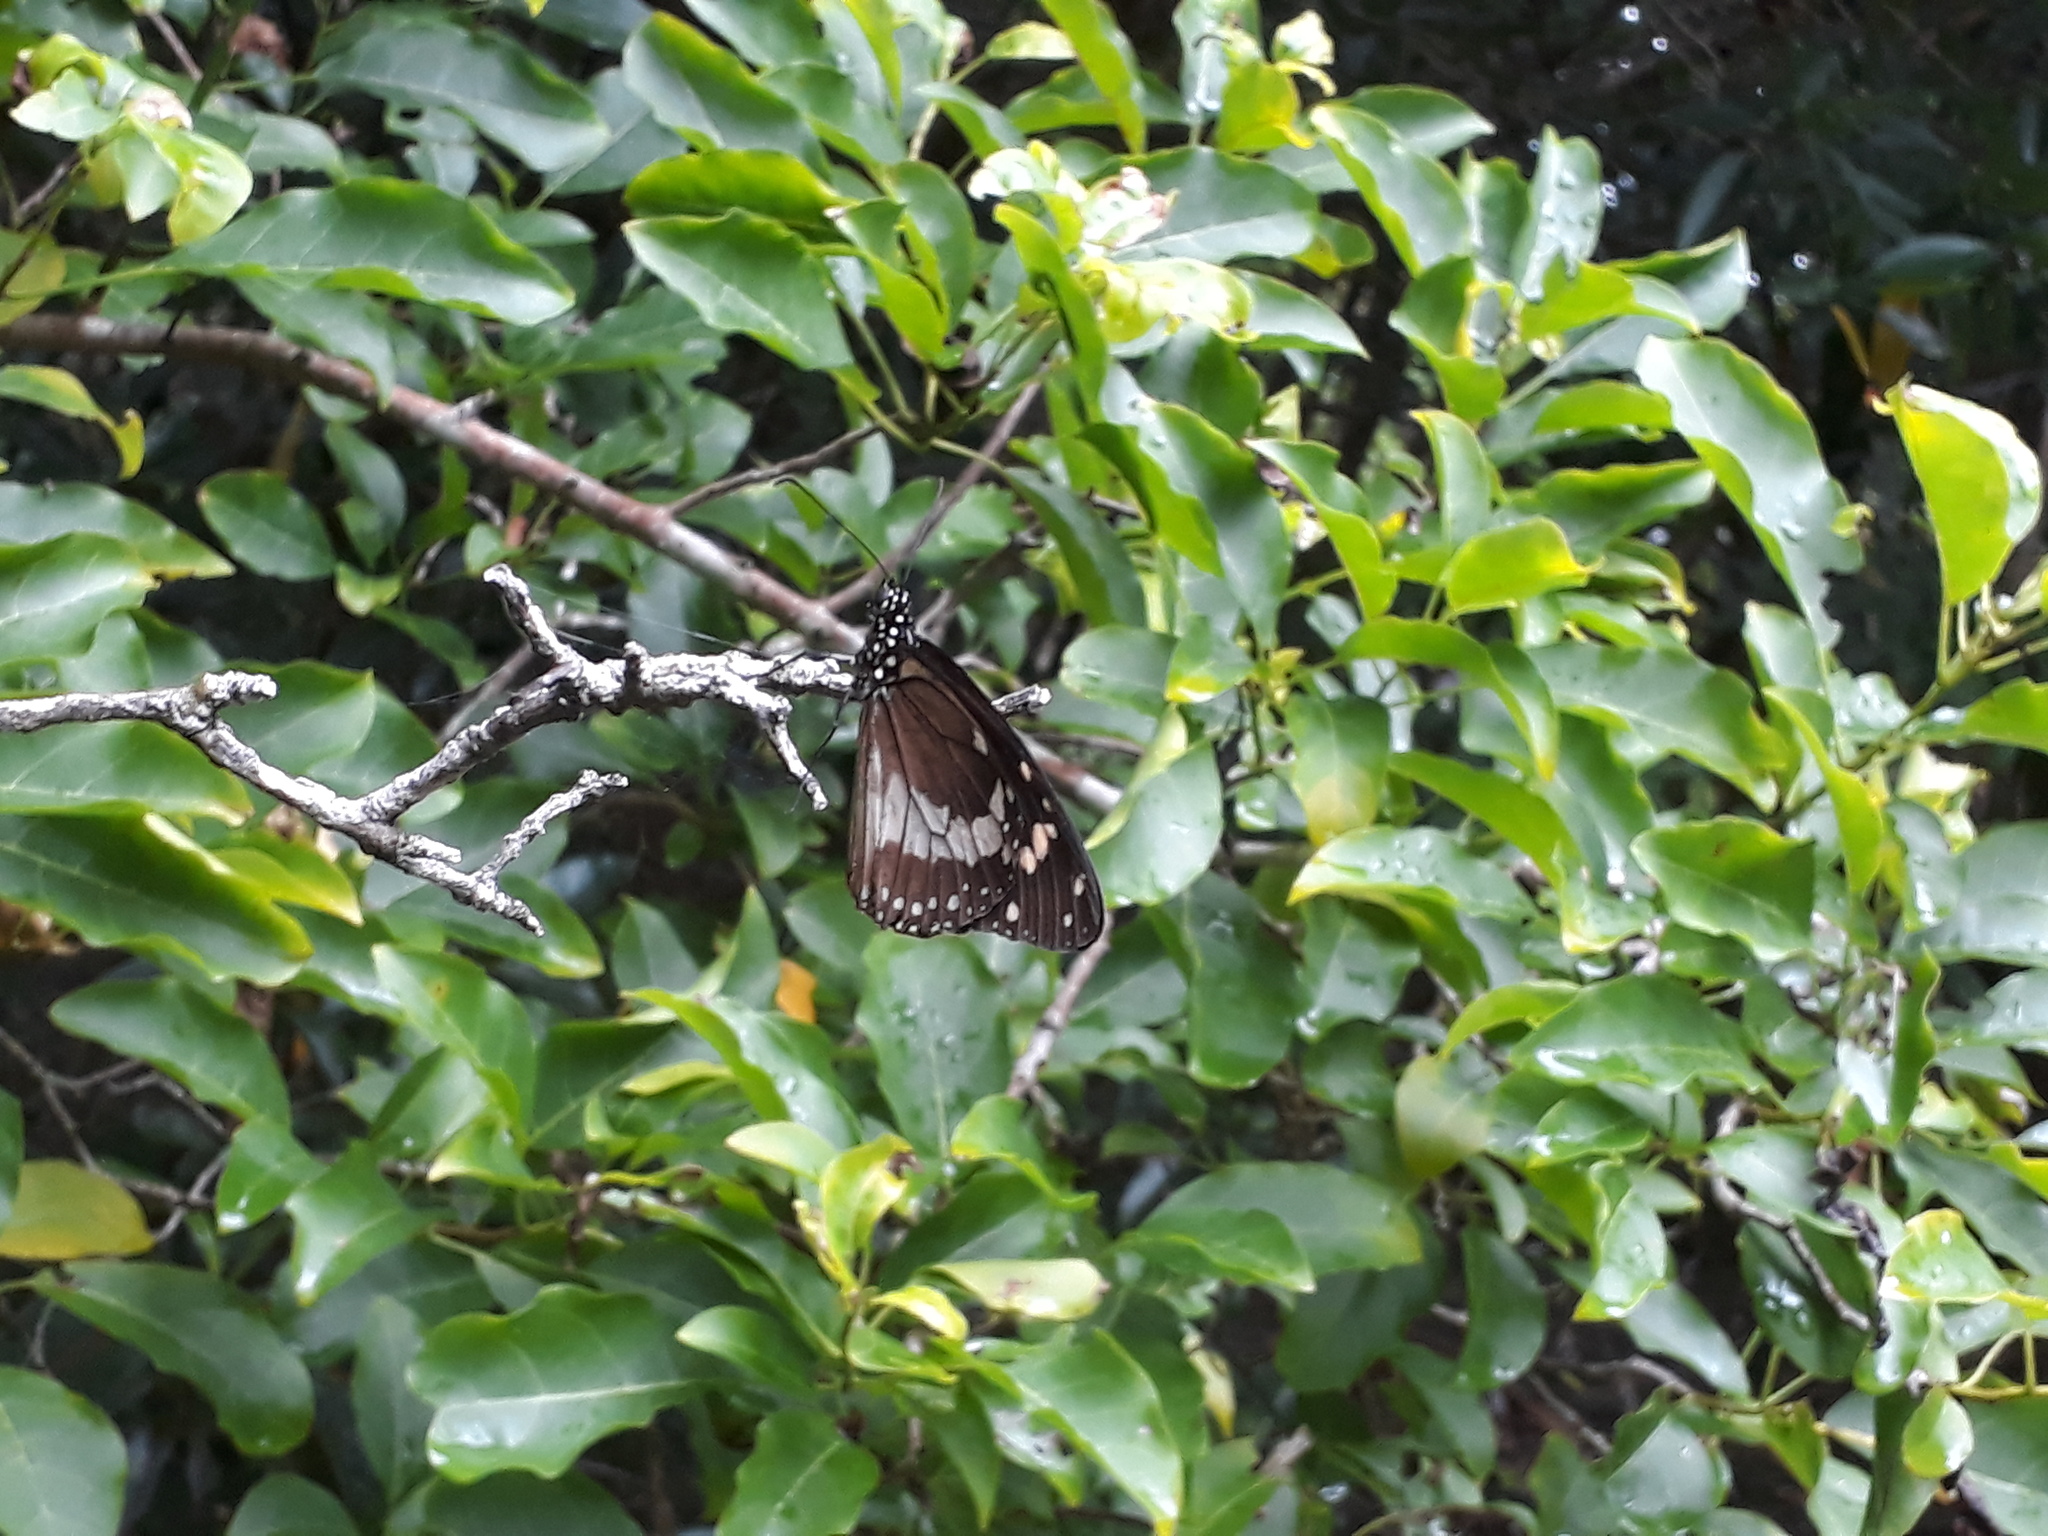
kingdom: Animalia
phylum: Arthropoda
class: Insecta
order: Lepidoptera
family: Nymphalidae
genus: Amauris
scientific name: Amauris phoedon
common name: Mauritian friar
